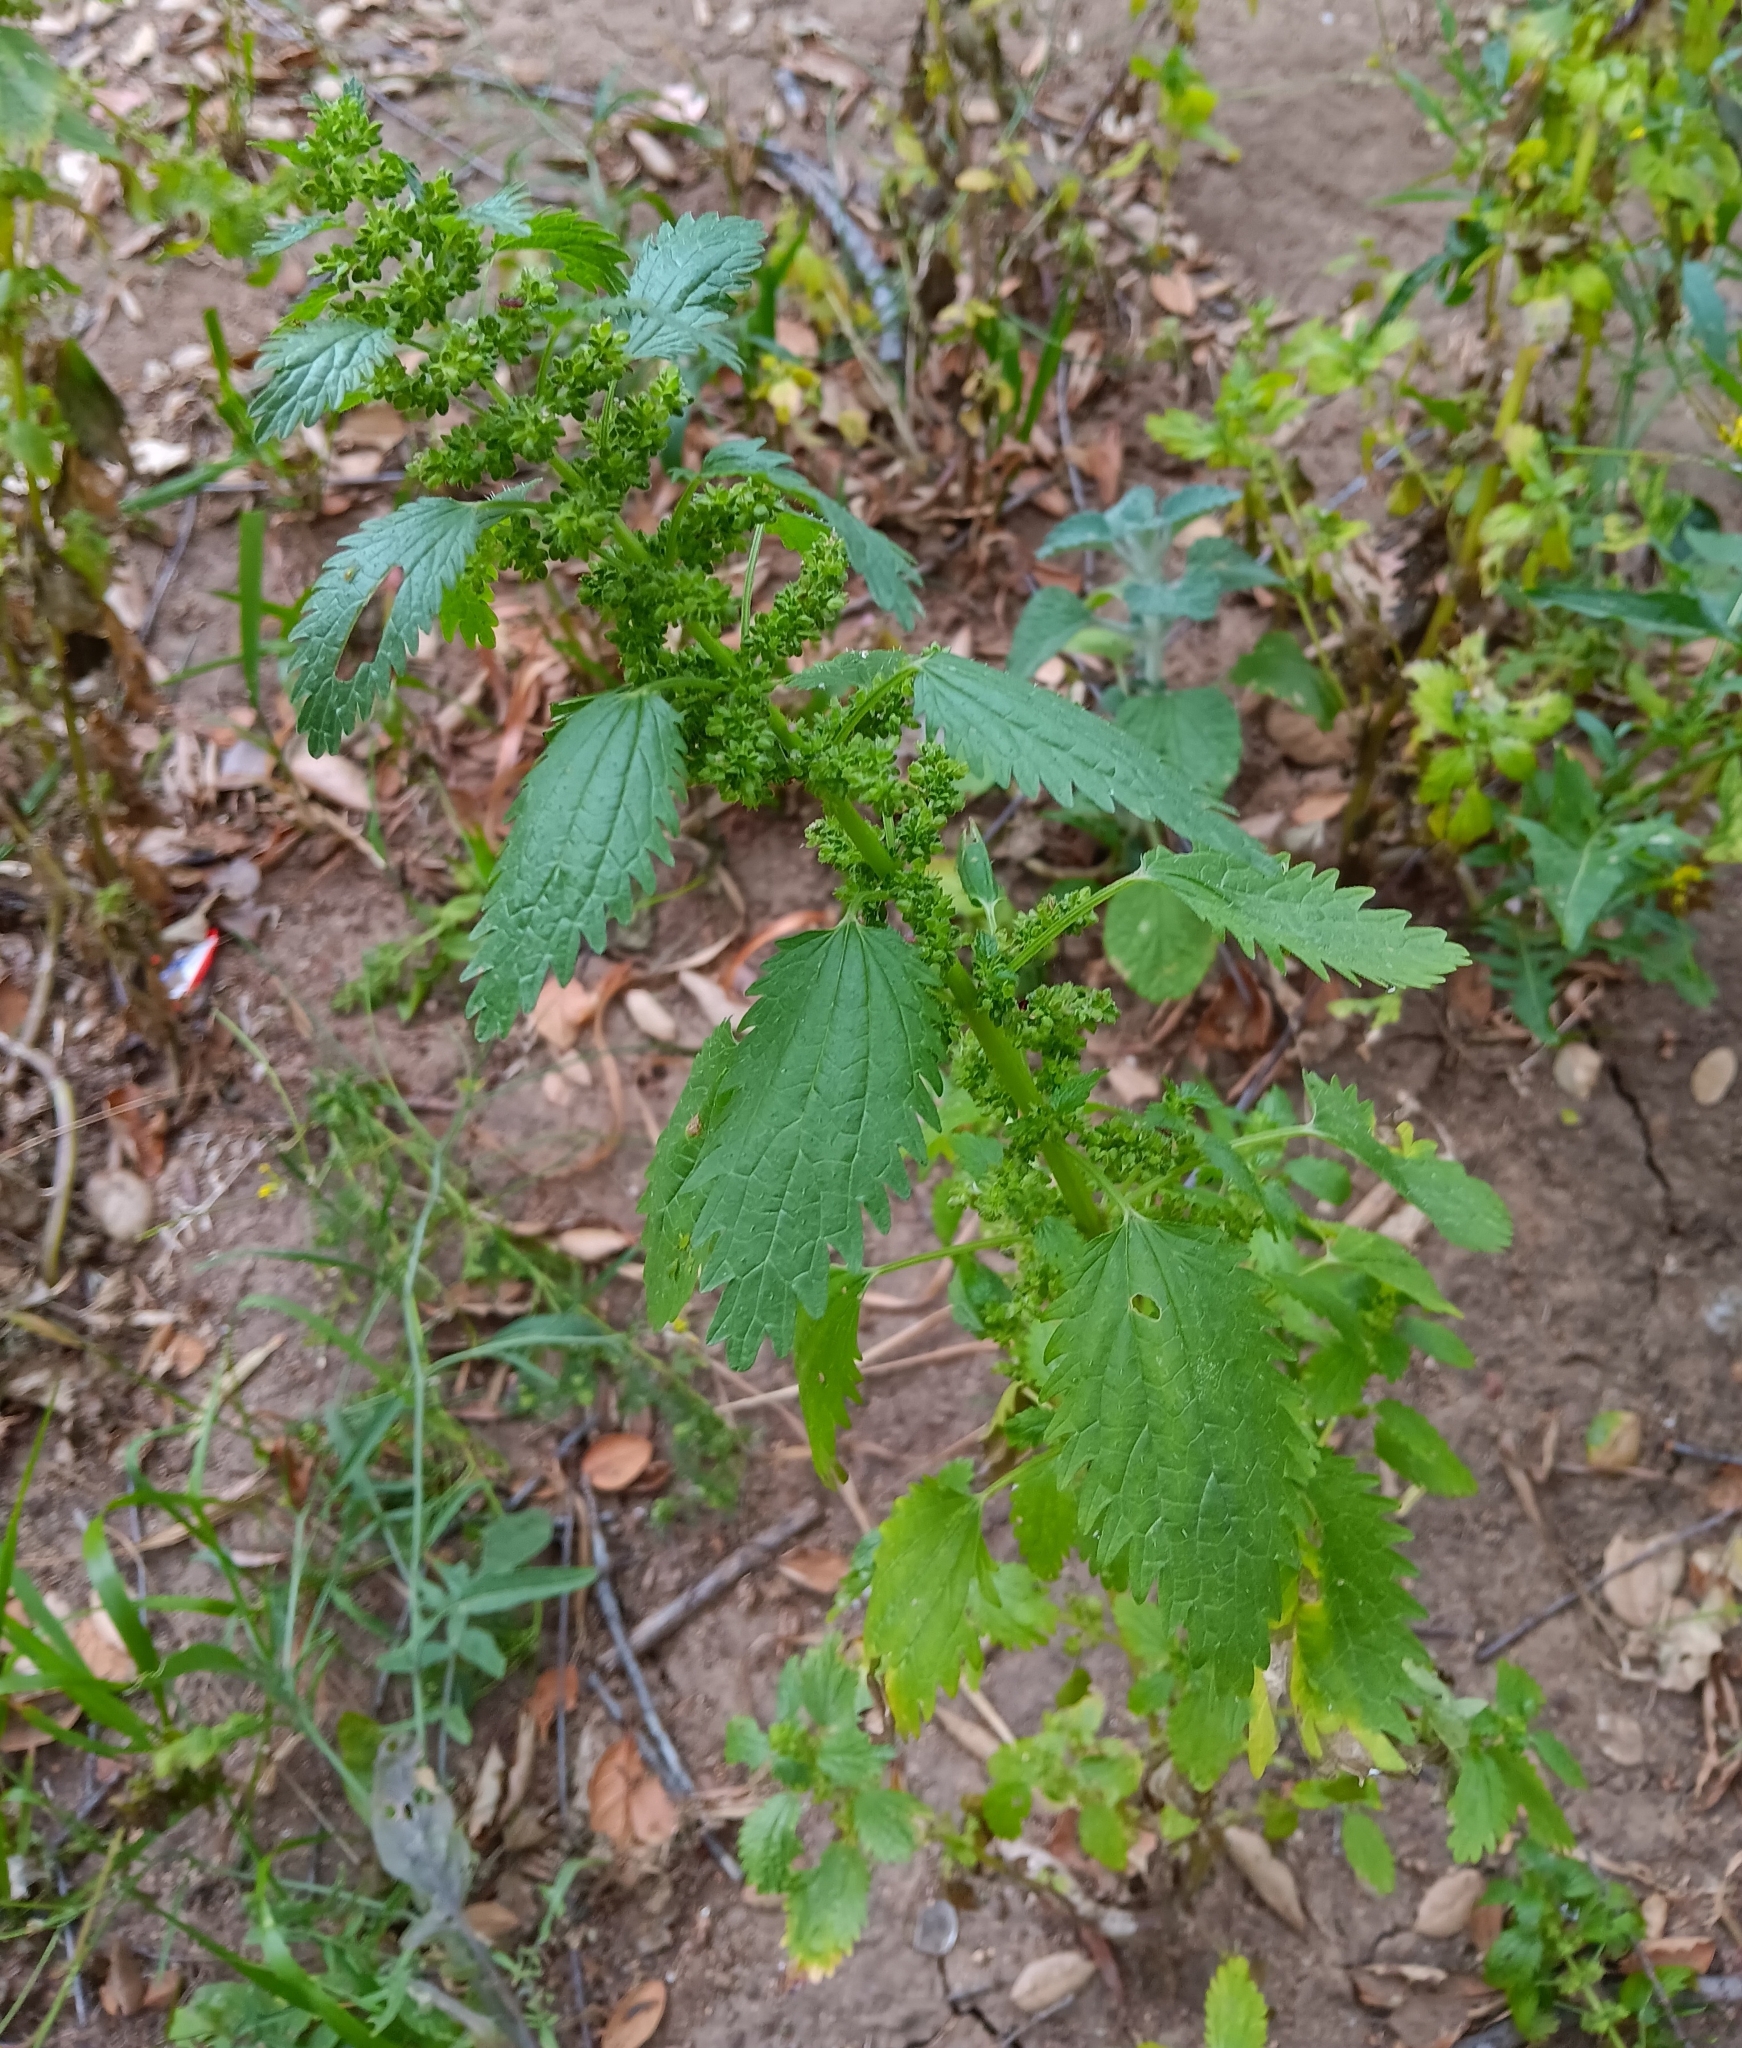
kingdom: Plantae
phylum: Tracheophyta
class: Magnoliopsida
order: Rosales
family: Urticaceae
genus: Urtica
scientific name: Urtica urens
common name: Dwarf nettle
